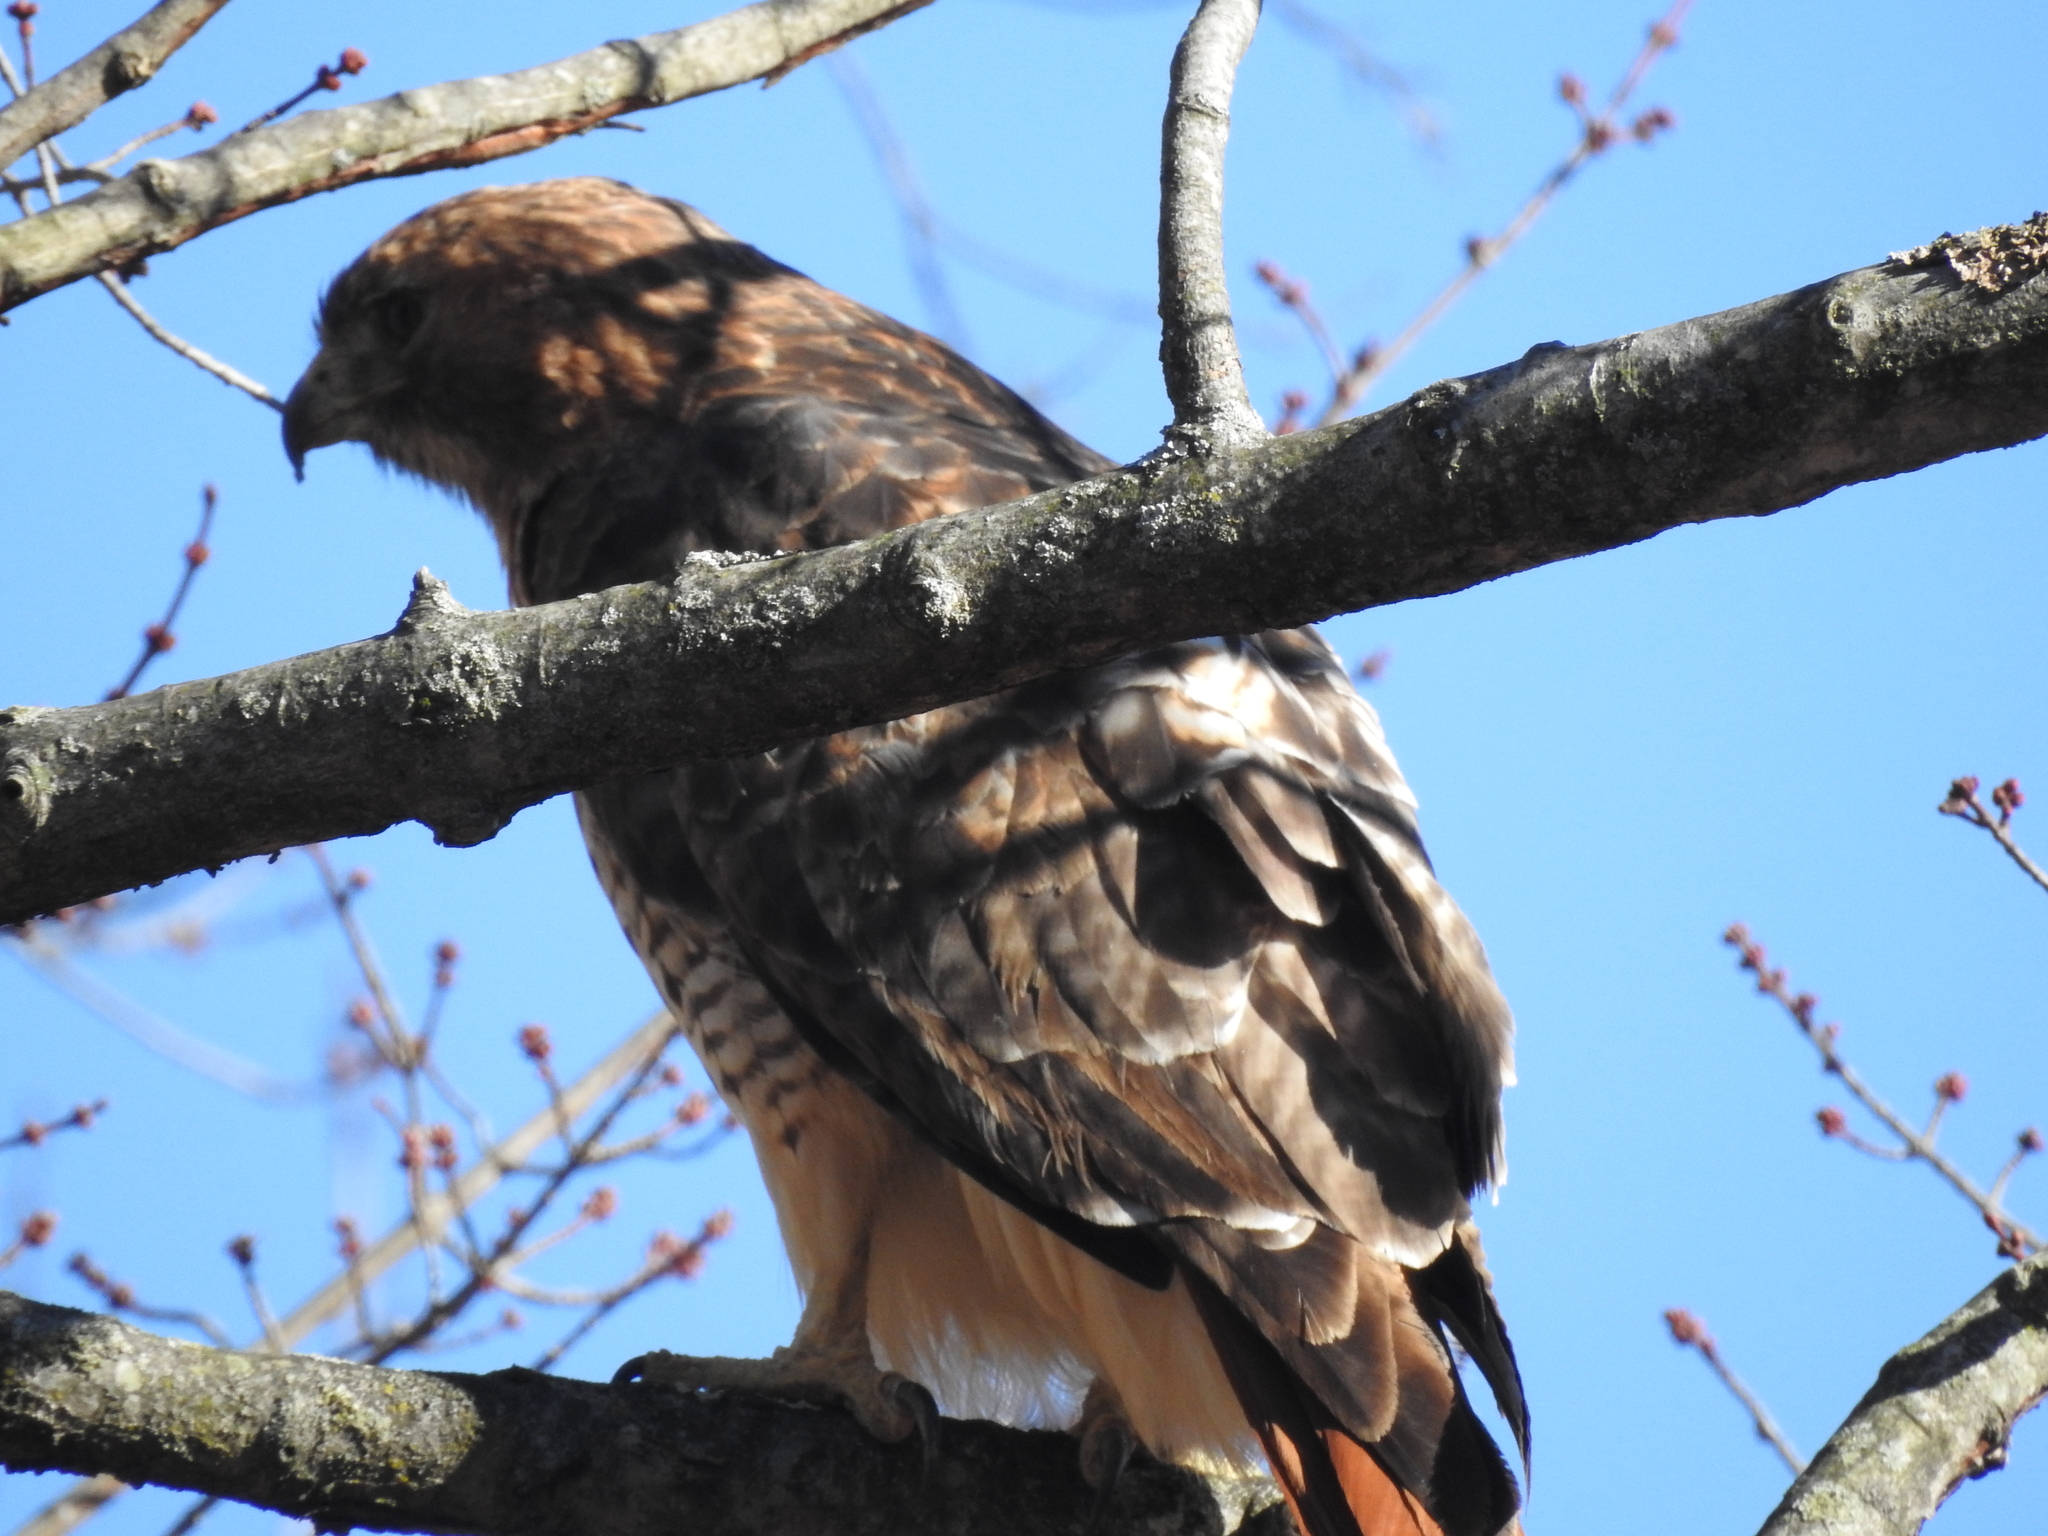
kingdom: Animalia
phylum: Chordata
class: Aves
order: Accipitriformes
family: Accipitridae
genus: Buteo
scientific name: Buteo jamaicensis
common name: Red-tailed hawk
